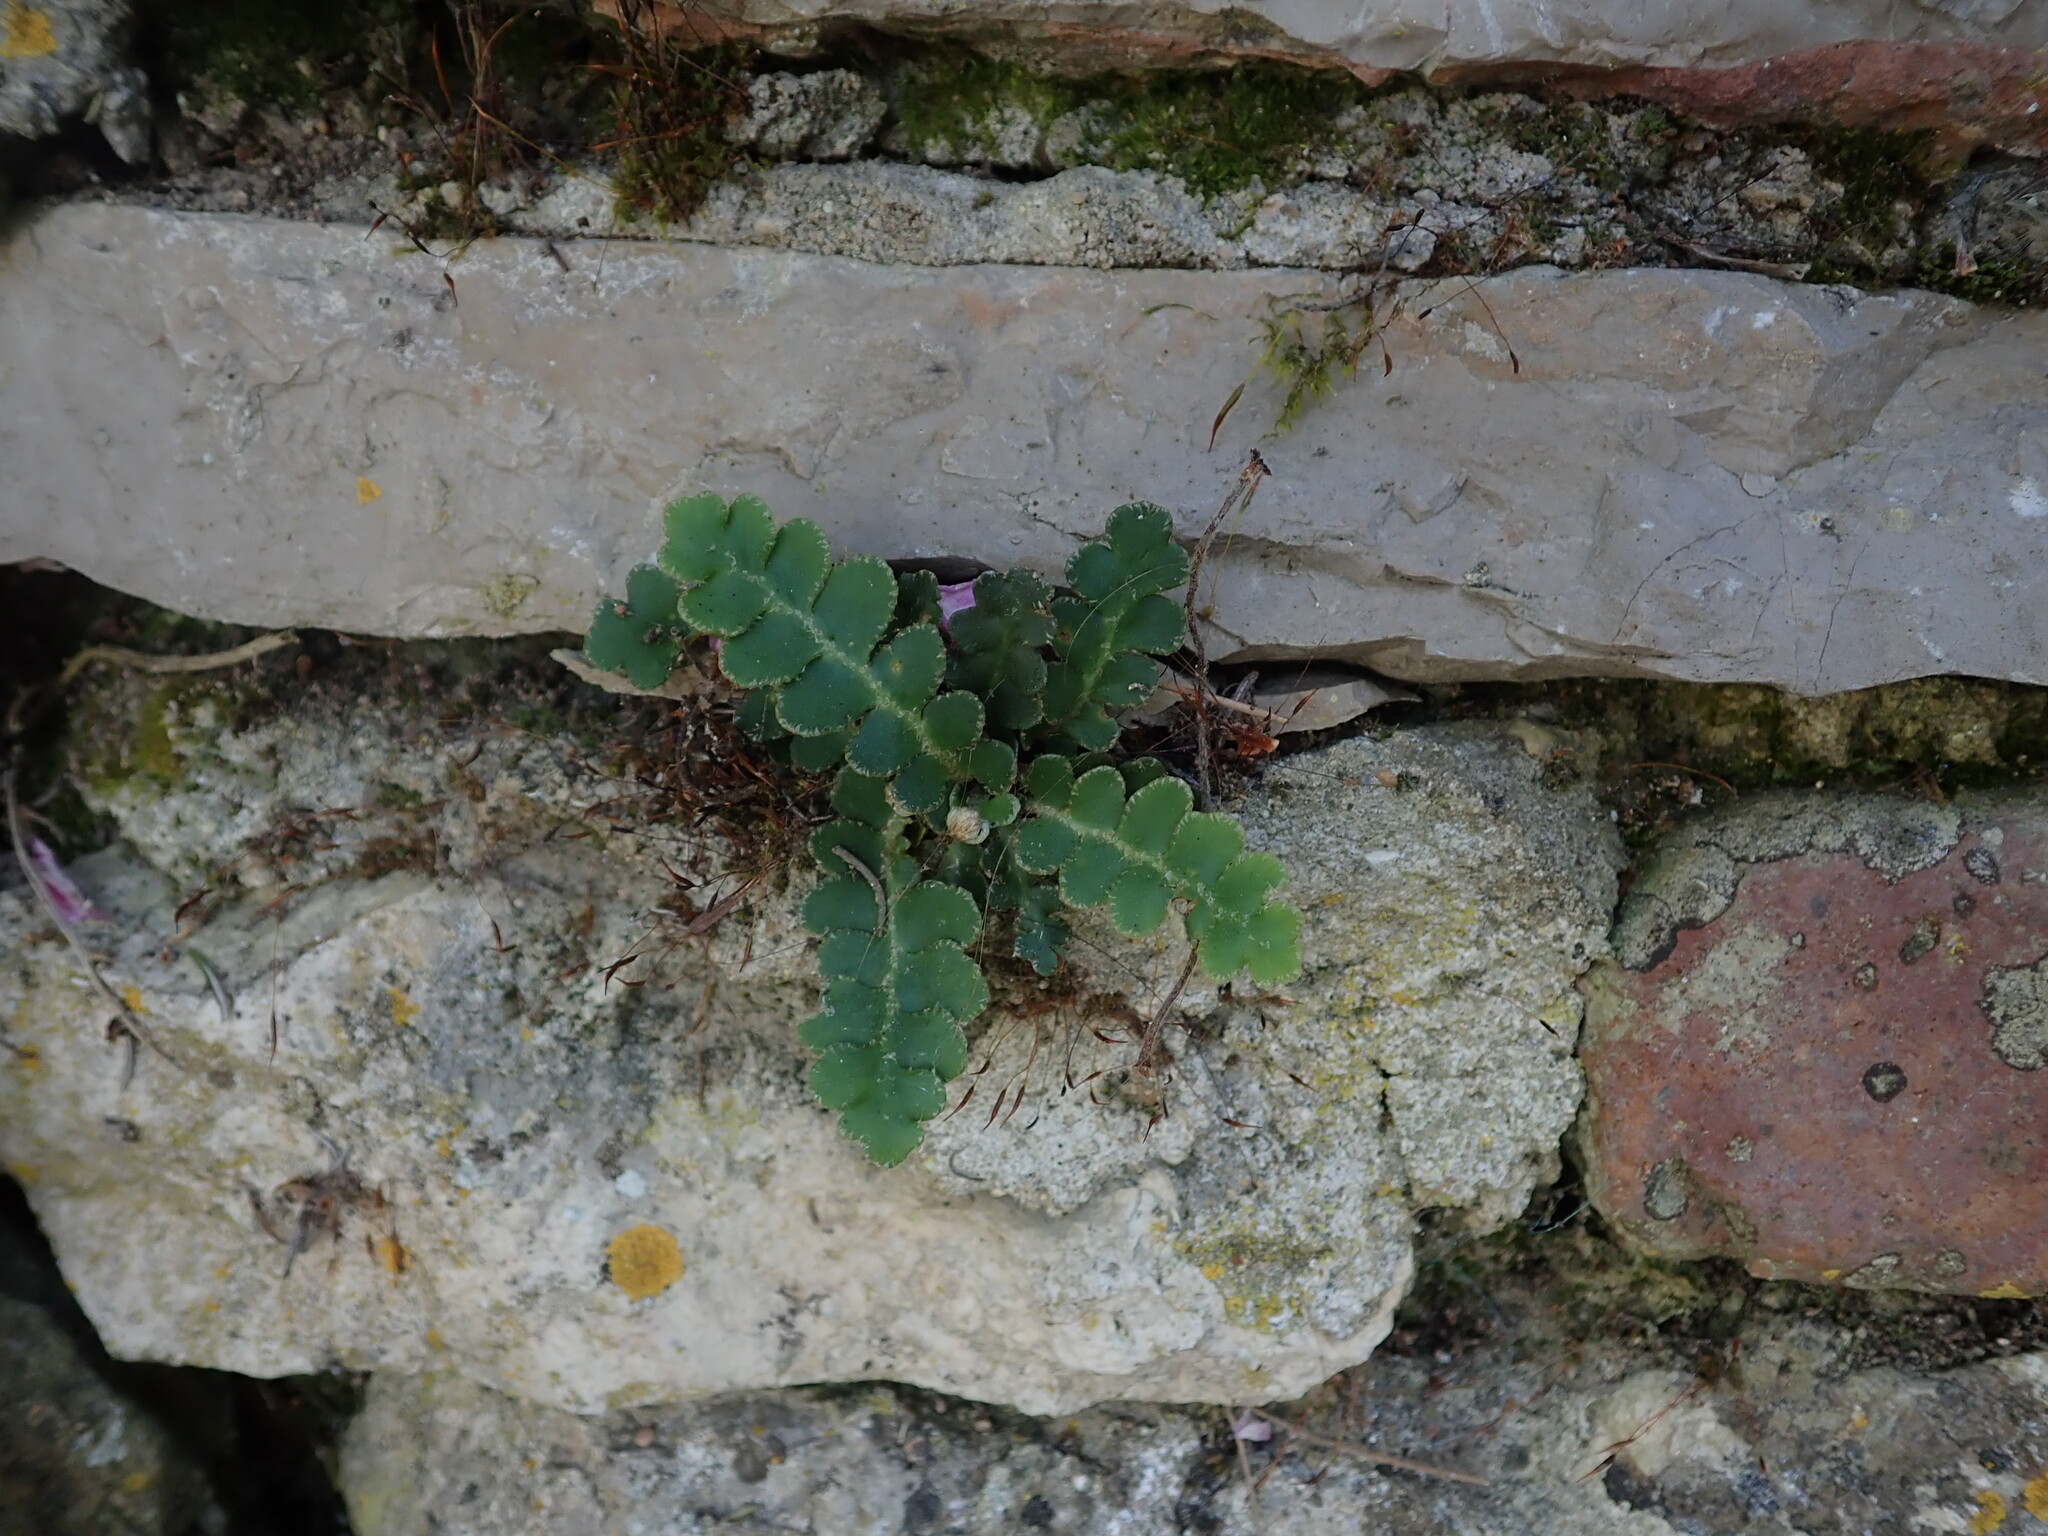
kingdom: Plantae
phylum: Tracheophyta
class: Polypodiopsida
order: Polypodiales
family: Aspleniaceae
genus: Asplenium
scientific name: Asplenium ceterach
